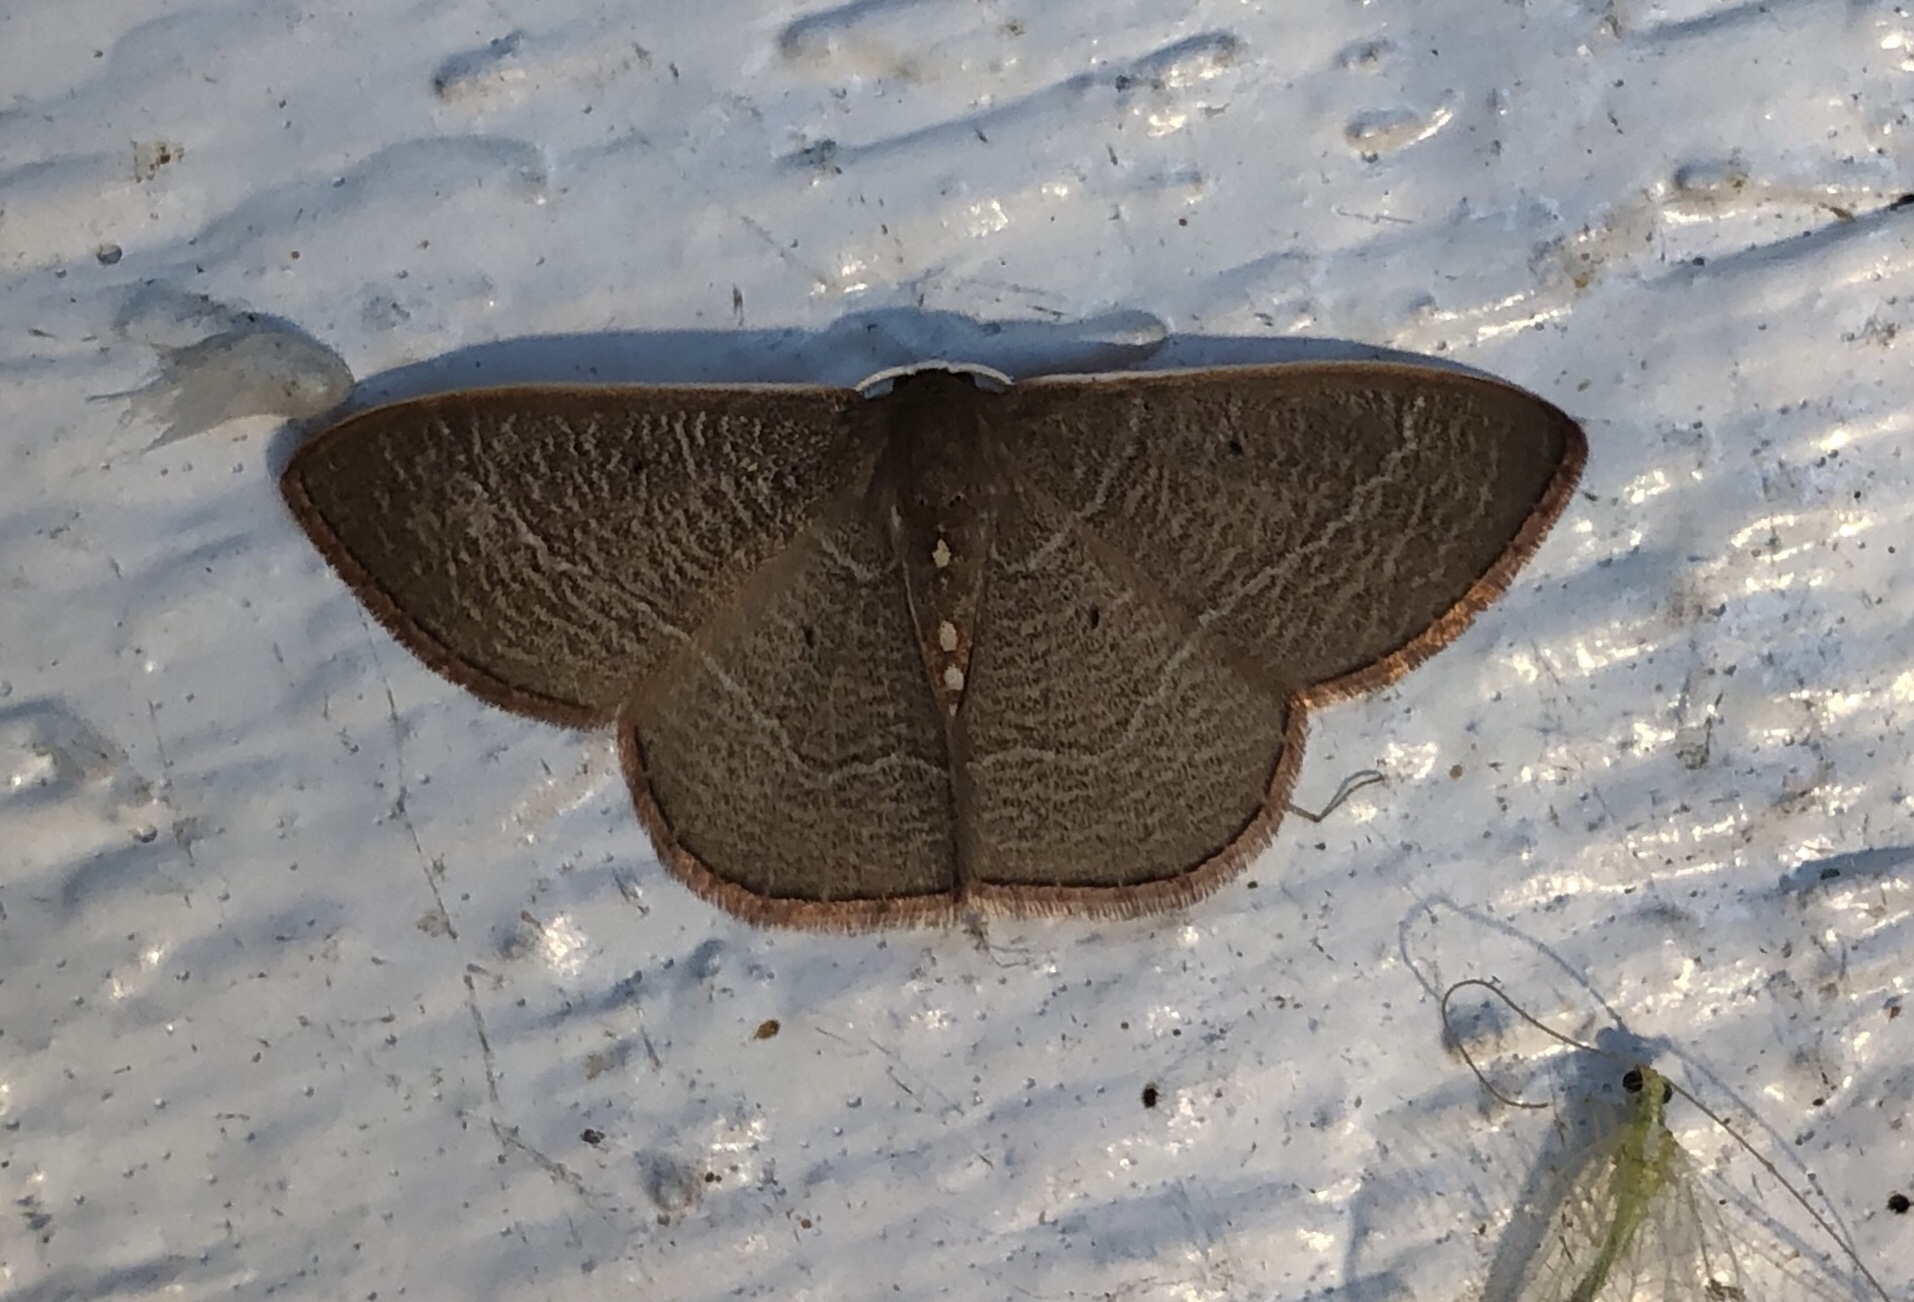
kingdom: Animalia
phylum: Arthropoda
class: Insecta
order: Lepidoptera
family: Geometridae
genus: Nemoria
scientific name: Nemoria bifilata
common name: White-barred emerald moth
